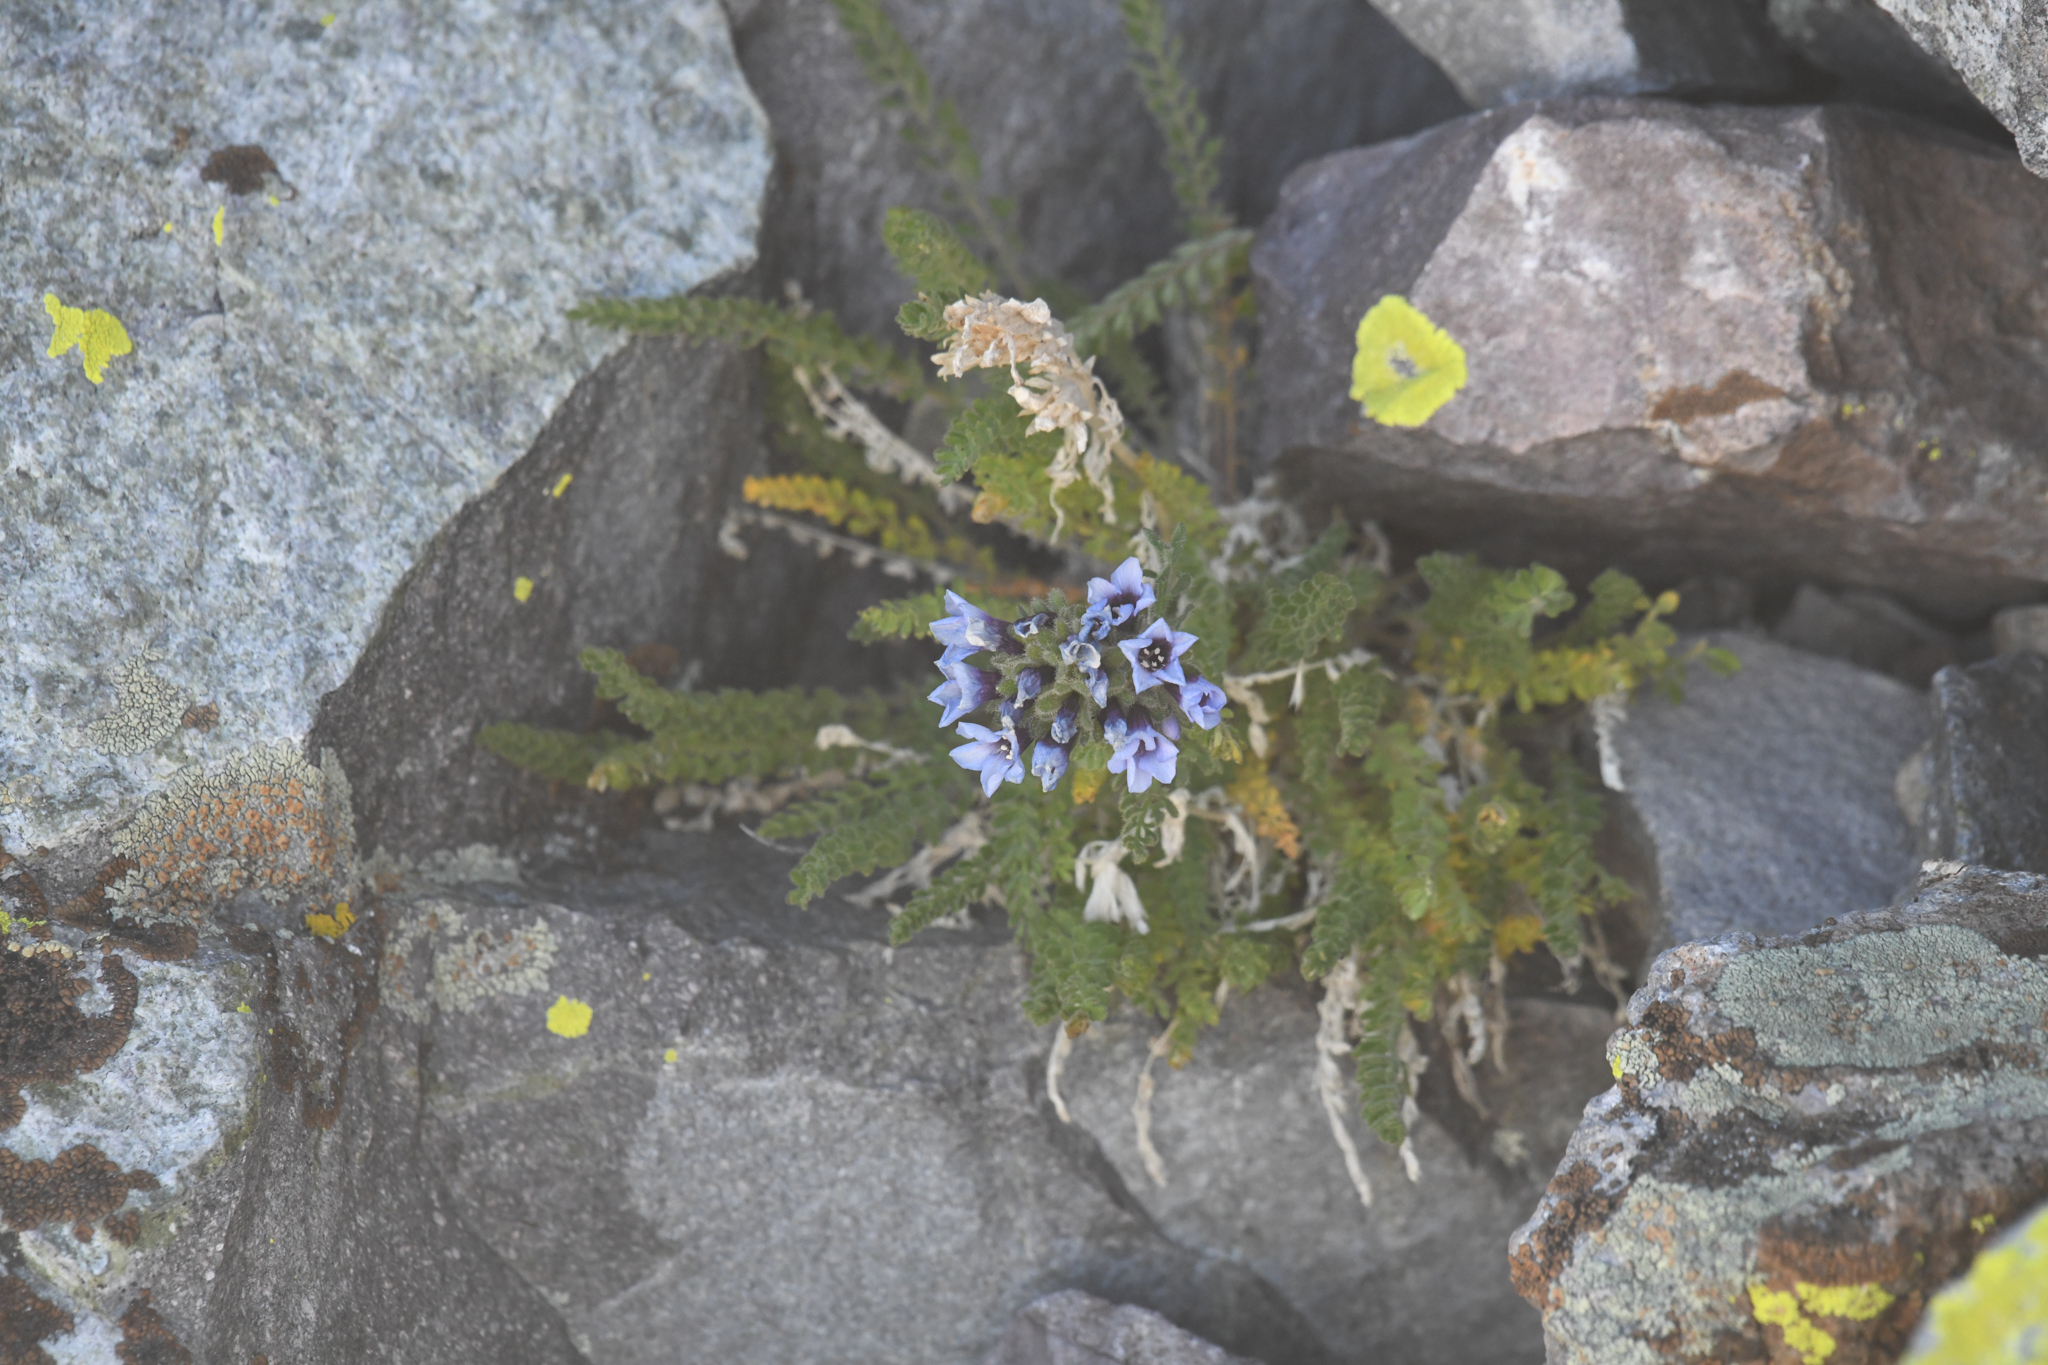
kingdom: Plantae
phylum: Tracheophyta
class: Magnoliopsida
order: Ericales
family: Polemoniaceae
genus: Polemonium
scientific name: Polemonium eximium
